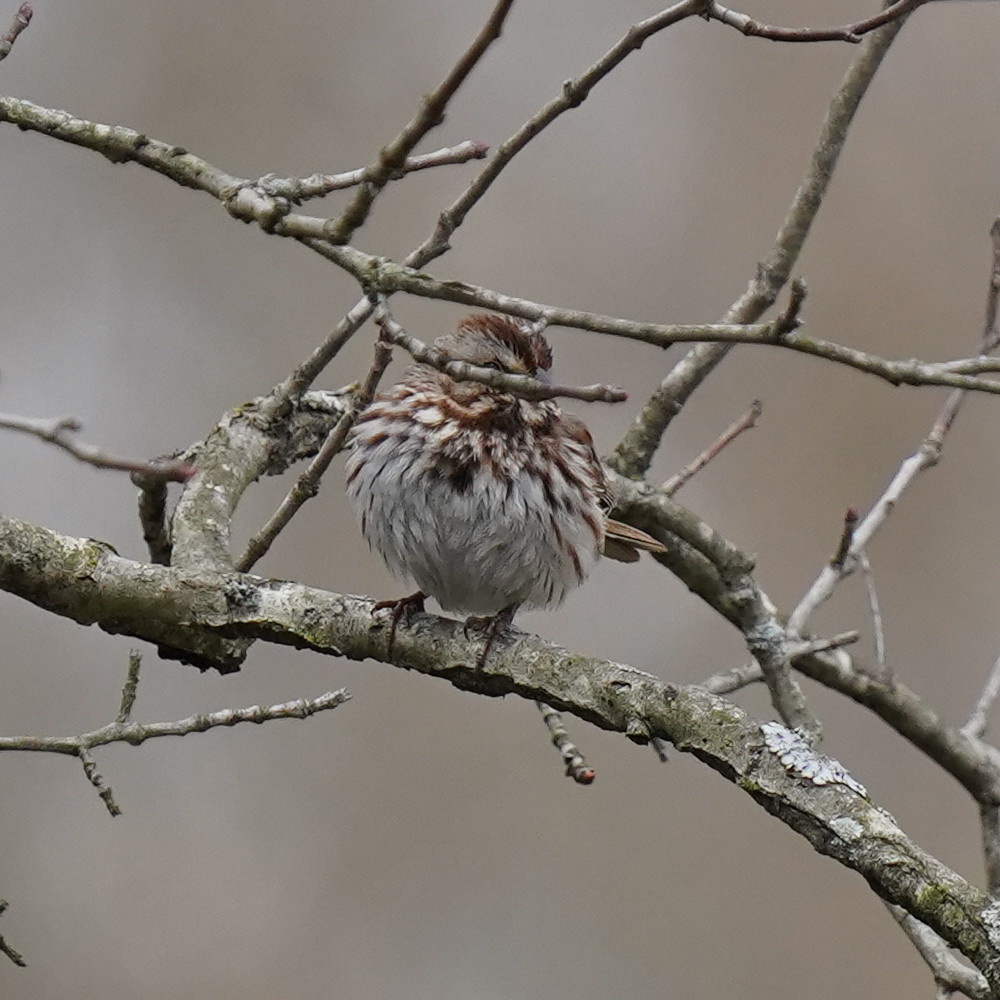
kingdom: Animalia
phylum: Chordata
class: Aves
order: Passeriformes
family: Passerellidae
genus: Melospiza
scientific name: Melospiza melodia
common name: Song sparrow
